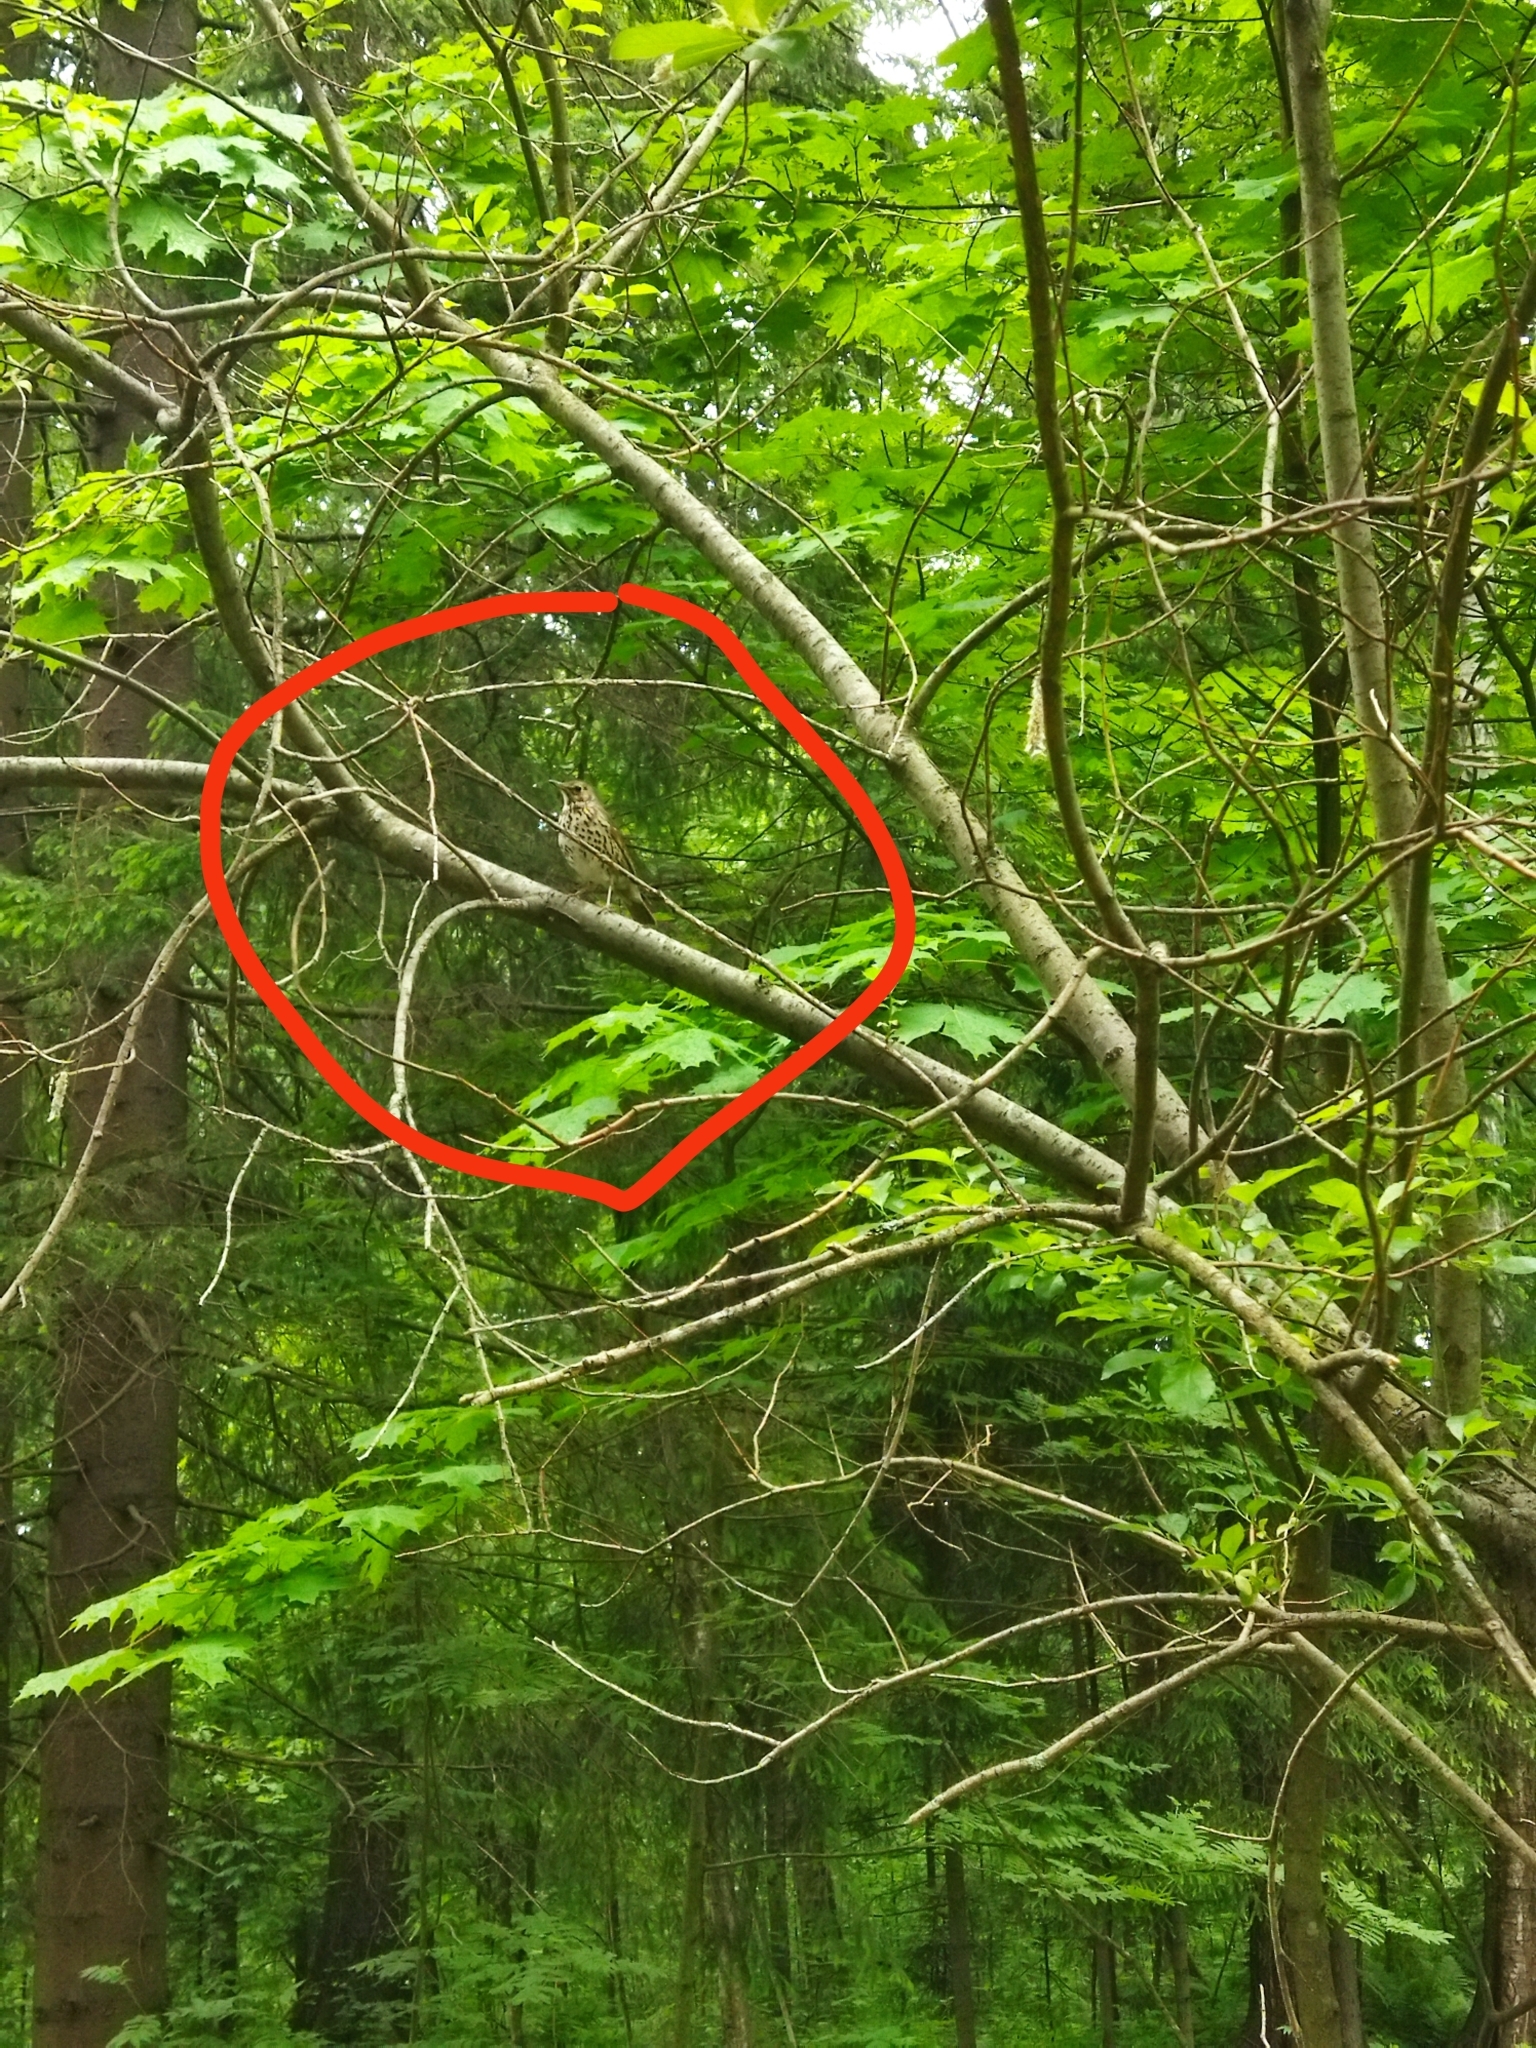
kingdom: Animalia
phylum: Chordata
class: Aves
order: Passeriformes
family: Turdidae
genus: Turdus
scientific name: Turdus philomelos
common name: Song thrush
